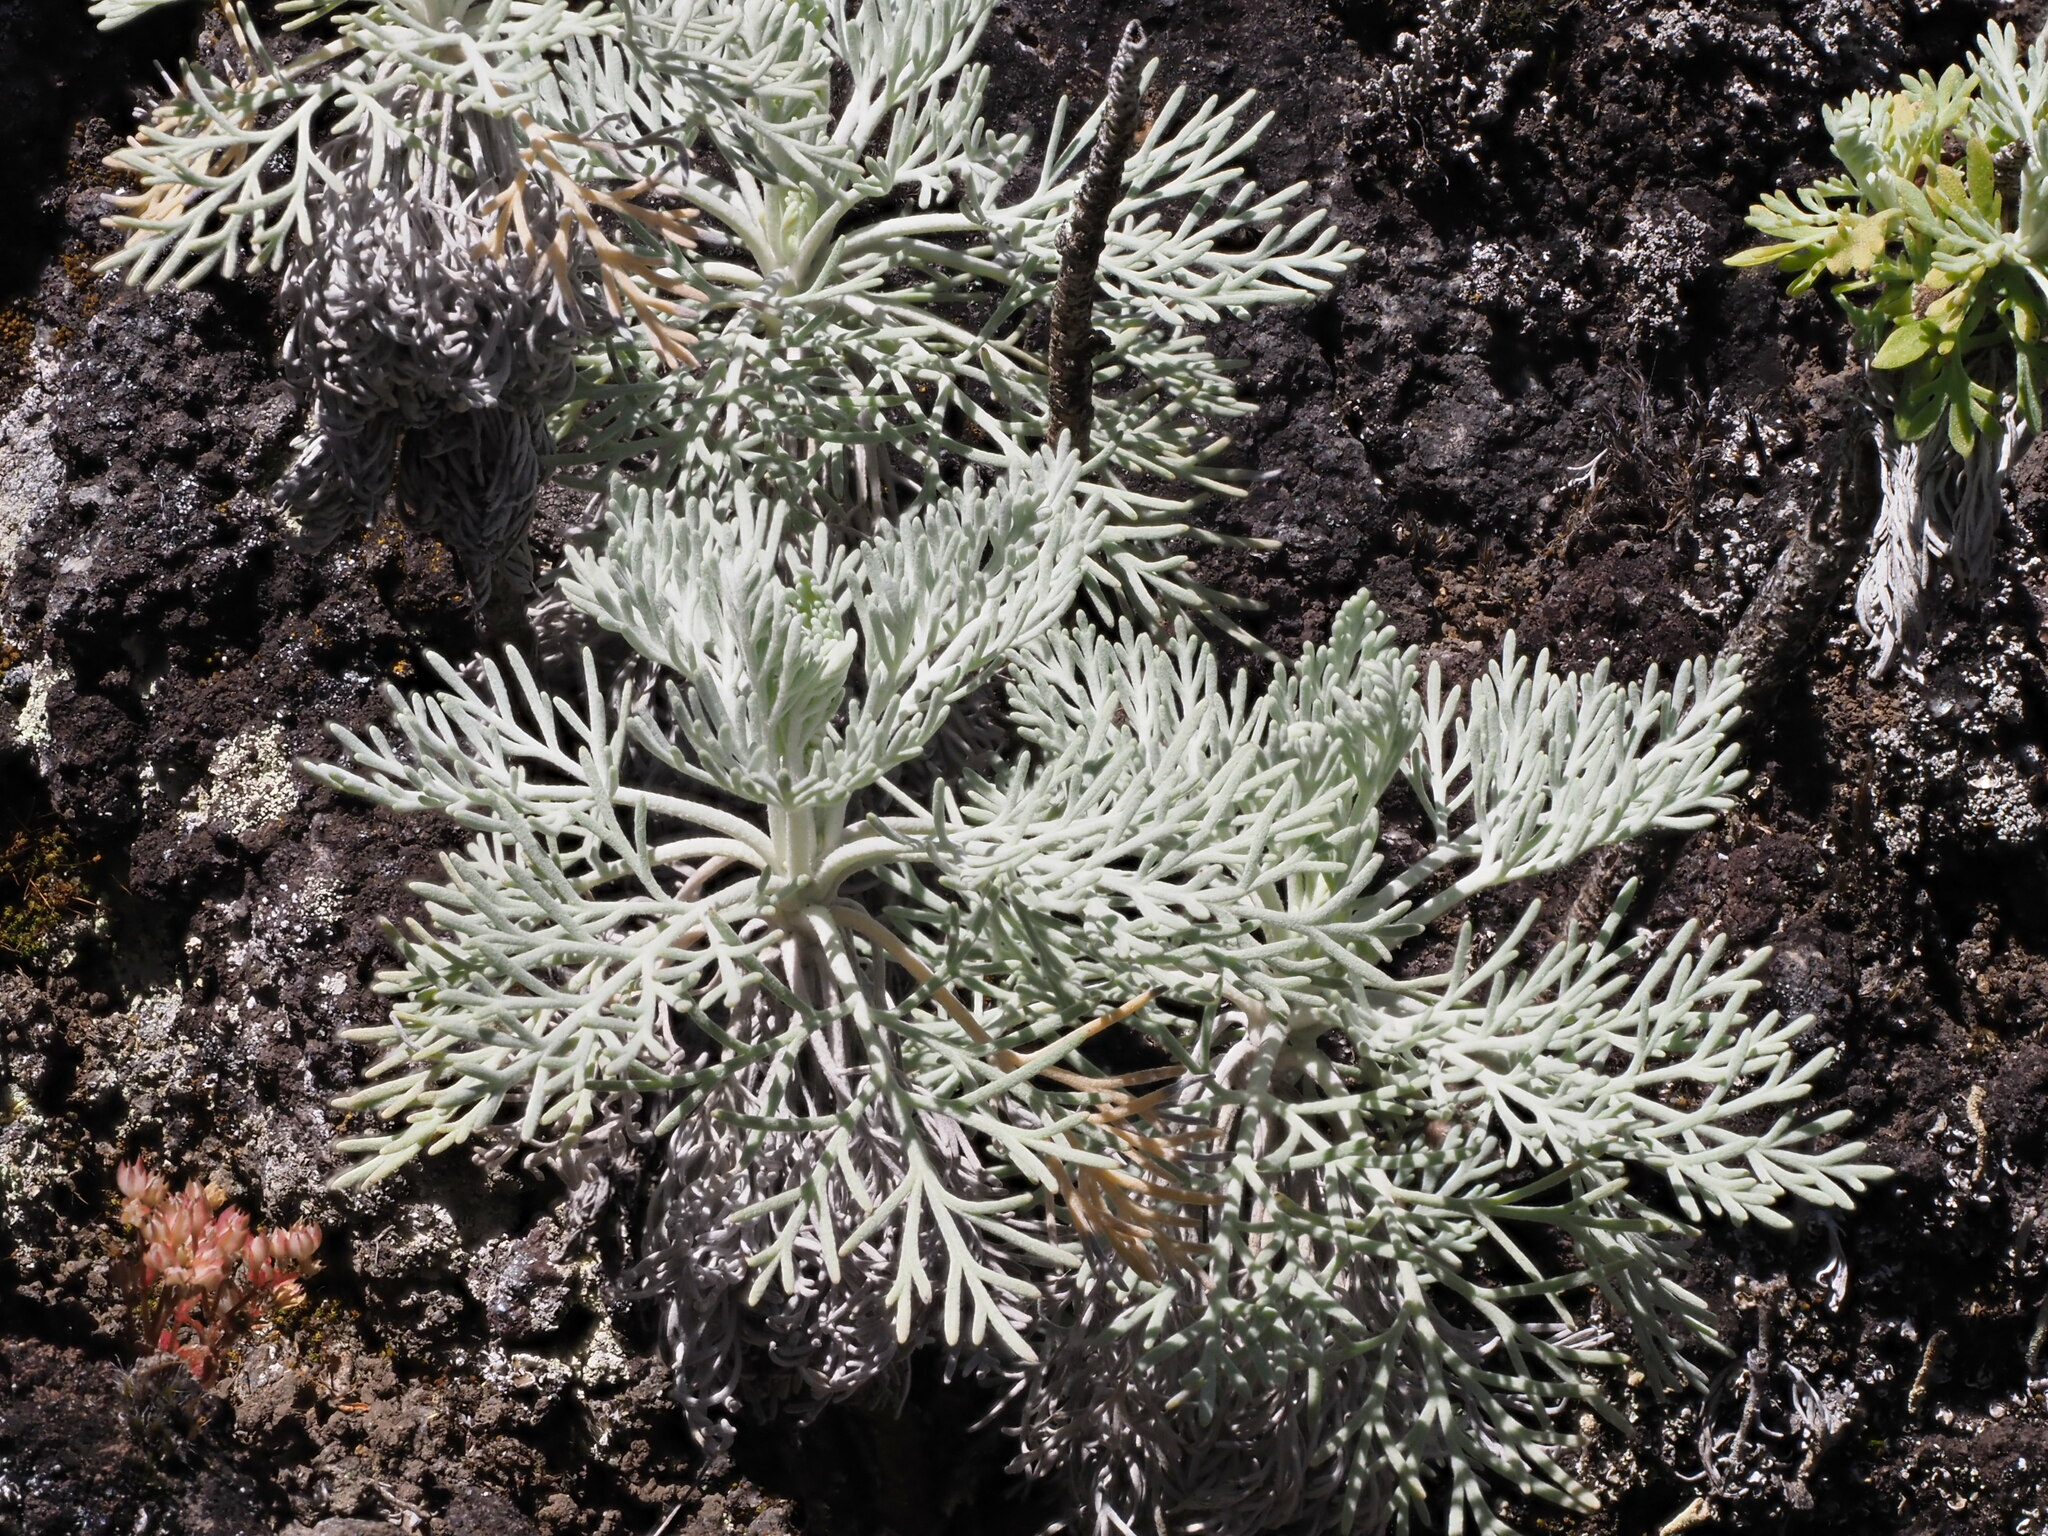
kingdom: Plantae
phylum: Tracheophyta
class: Magnoliopsida
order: Asterales
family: Asteraceae
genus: Artemisia
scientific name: Artemisia mauiensis
